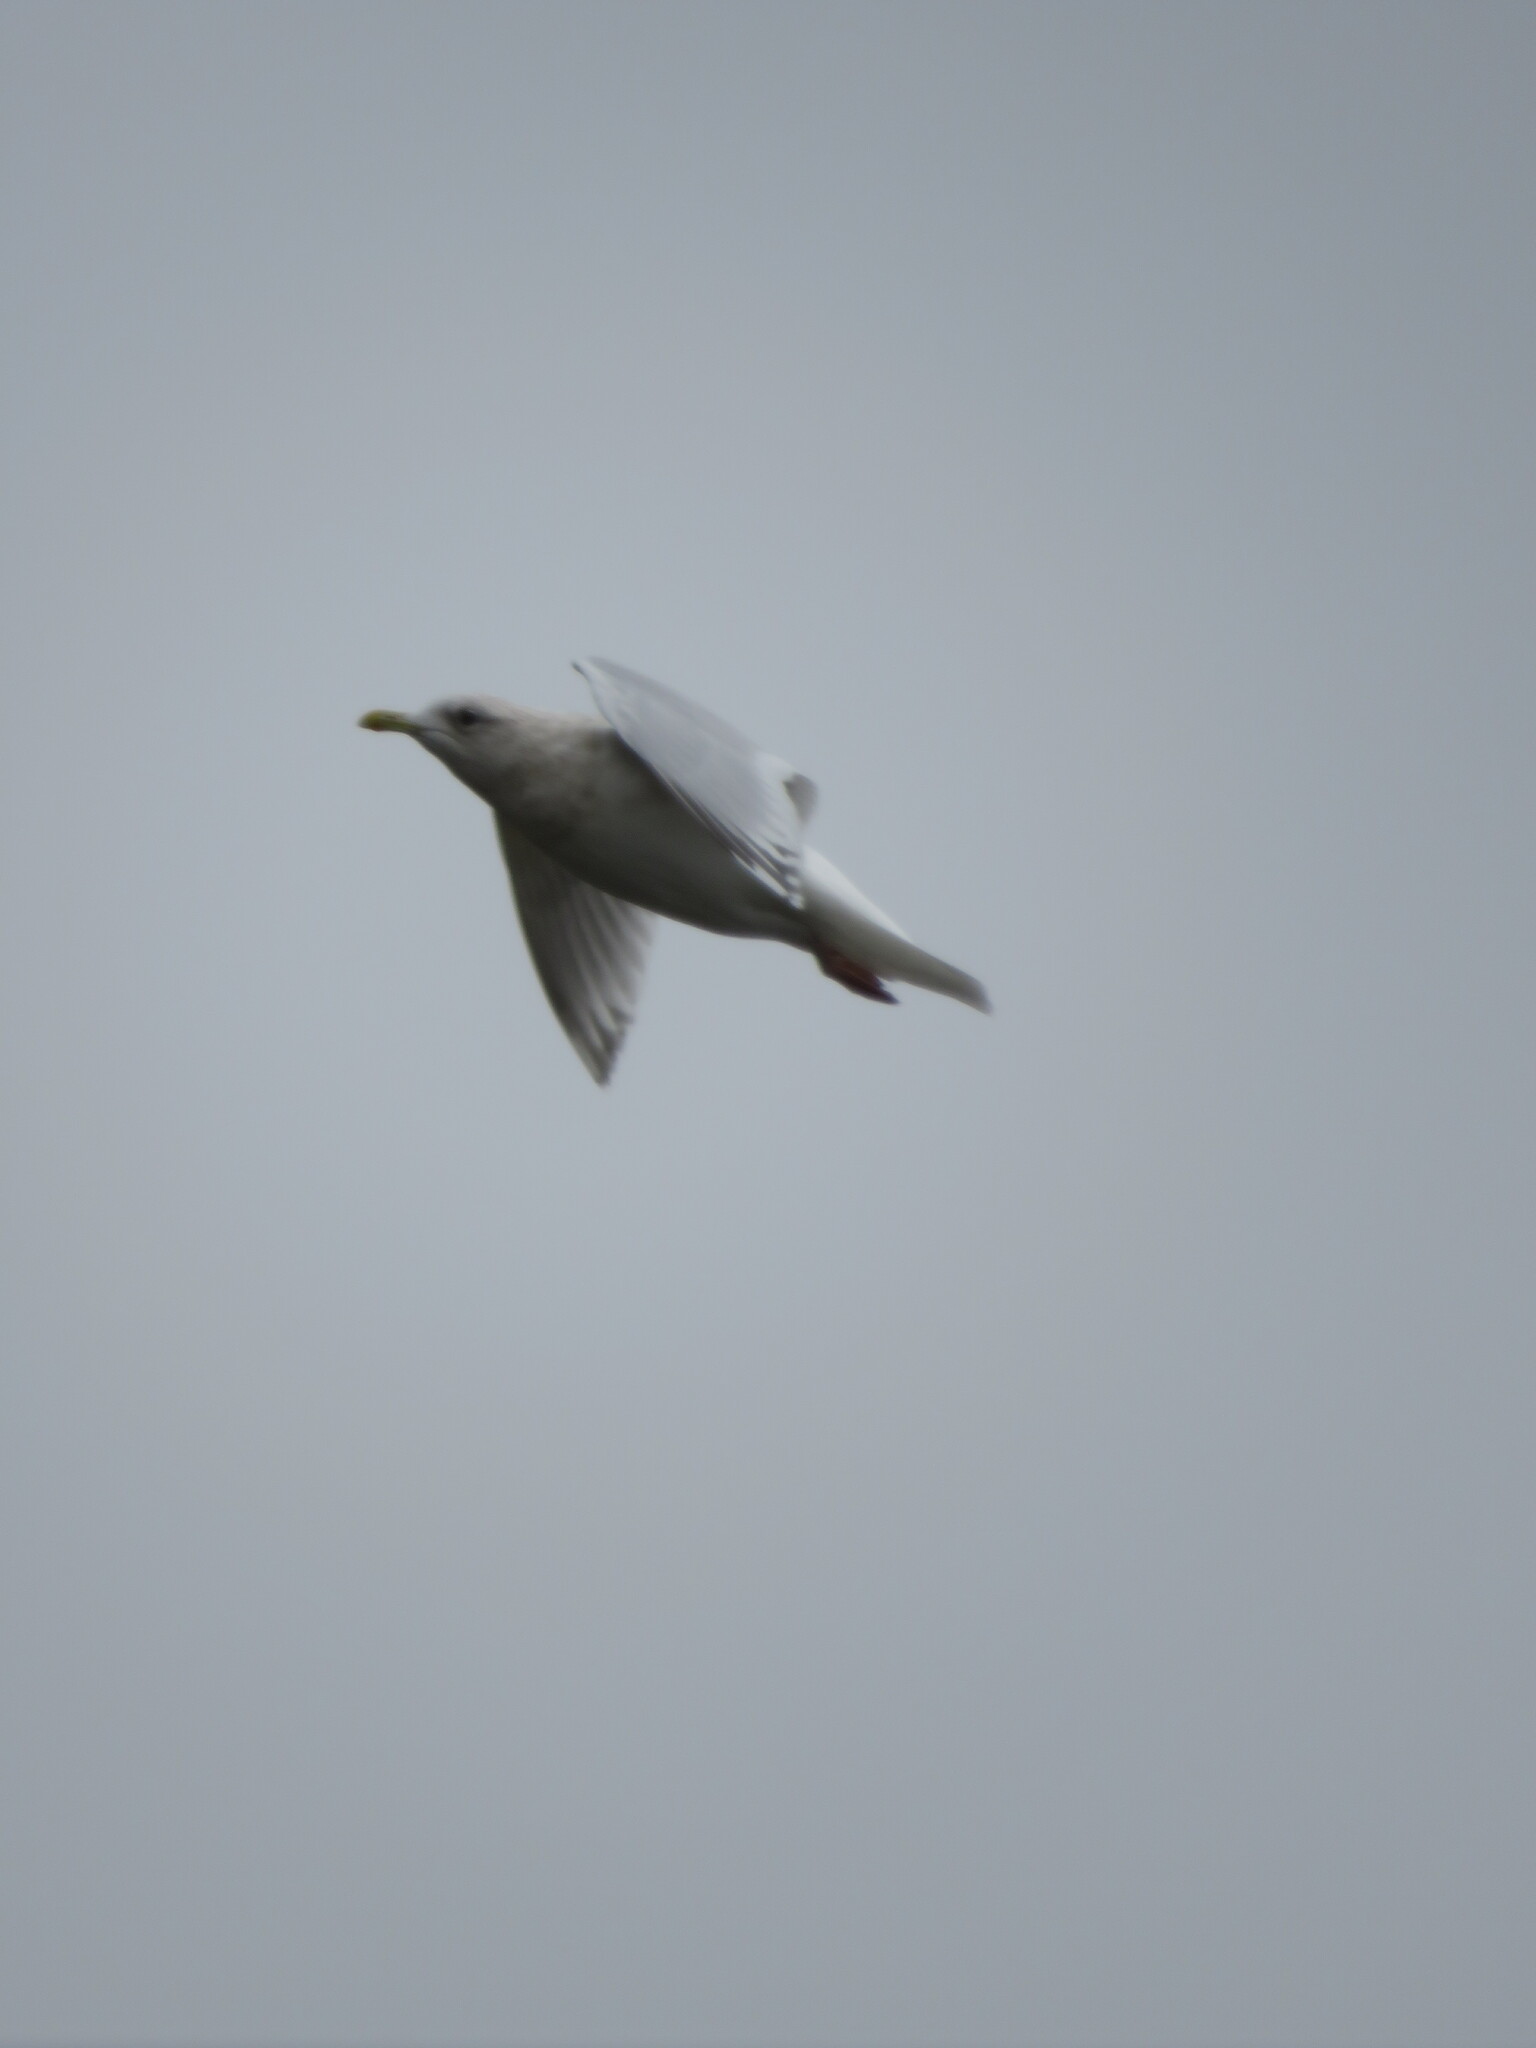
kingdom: Animalia
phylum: Chordata
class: Aves
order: Charadriiformes
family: Laridae
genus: Larus
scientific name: Larus glaucoides
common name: Iceland gull
